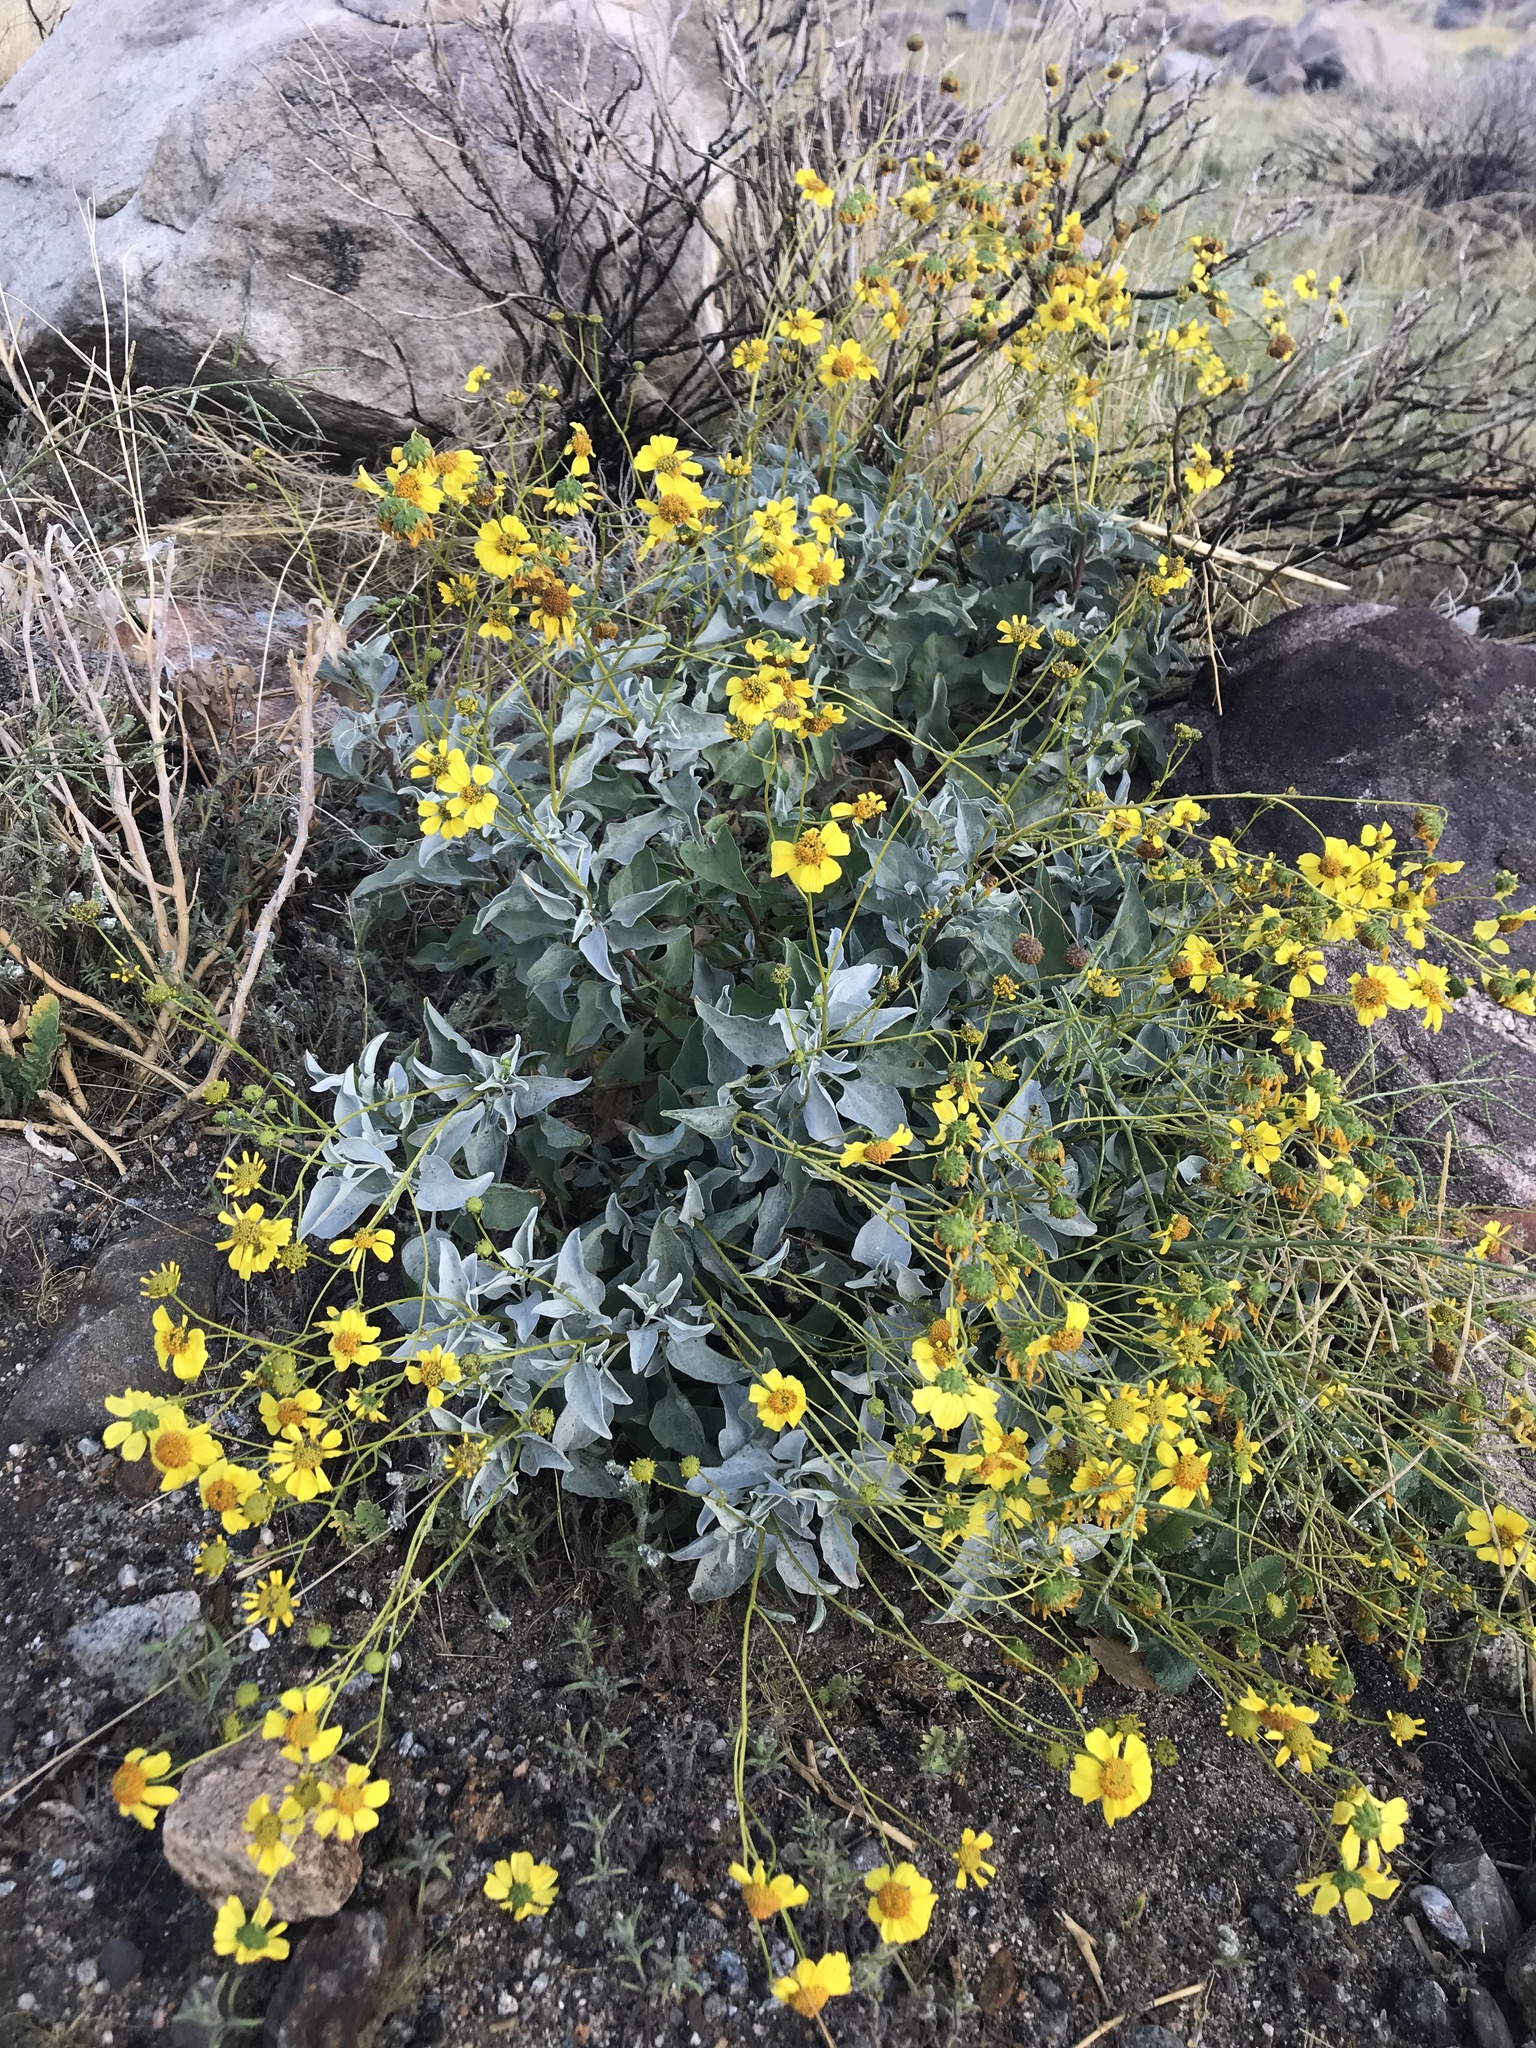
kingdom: Plantae
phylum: Tracheophyta
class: Magnoliopsida
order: Asterales
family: Asteraceae
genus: Encelia
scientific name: Encelia farinosa
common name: Brittlebush
